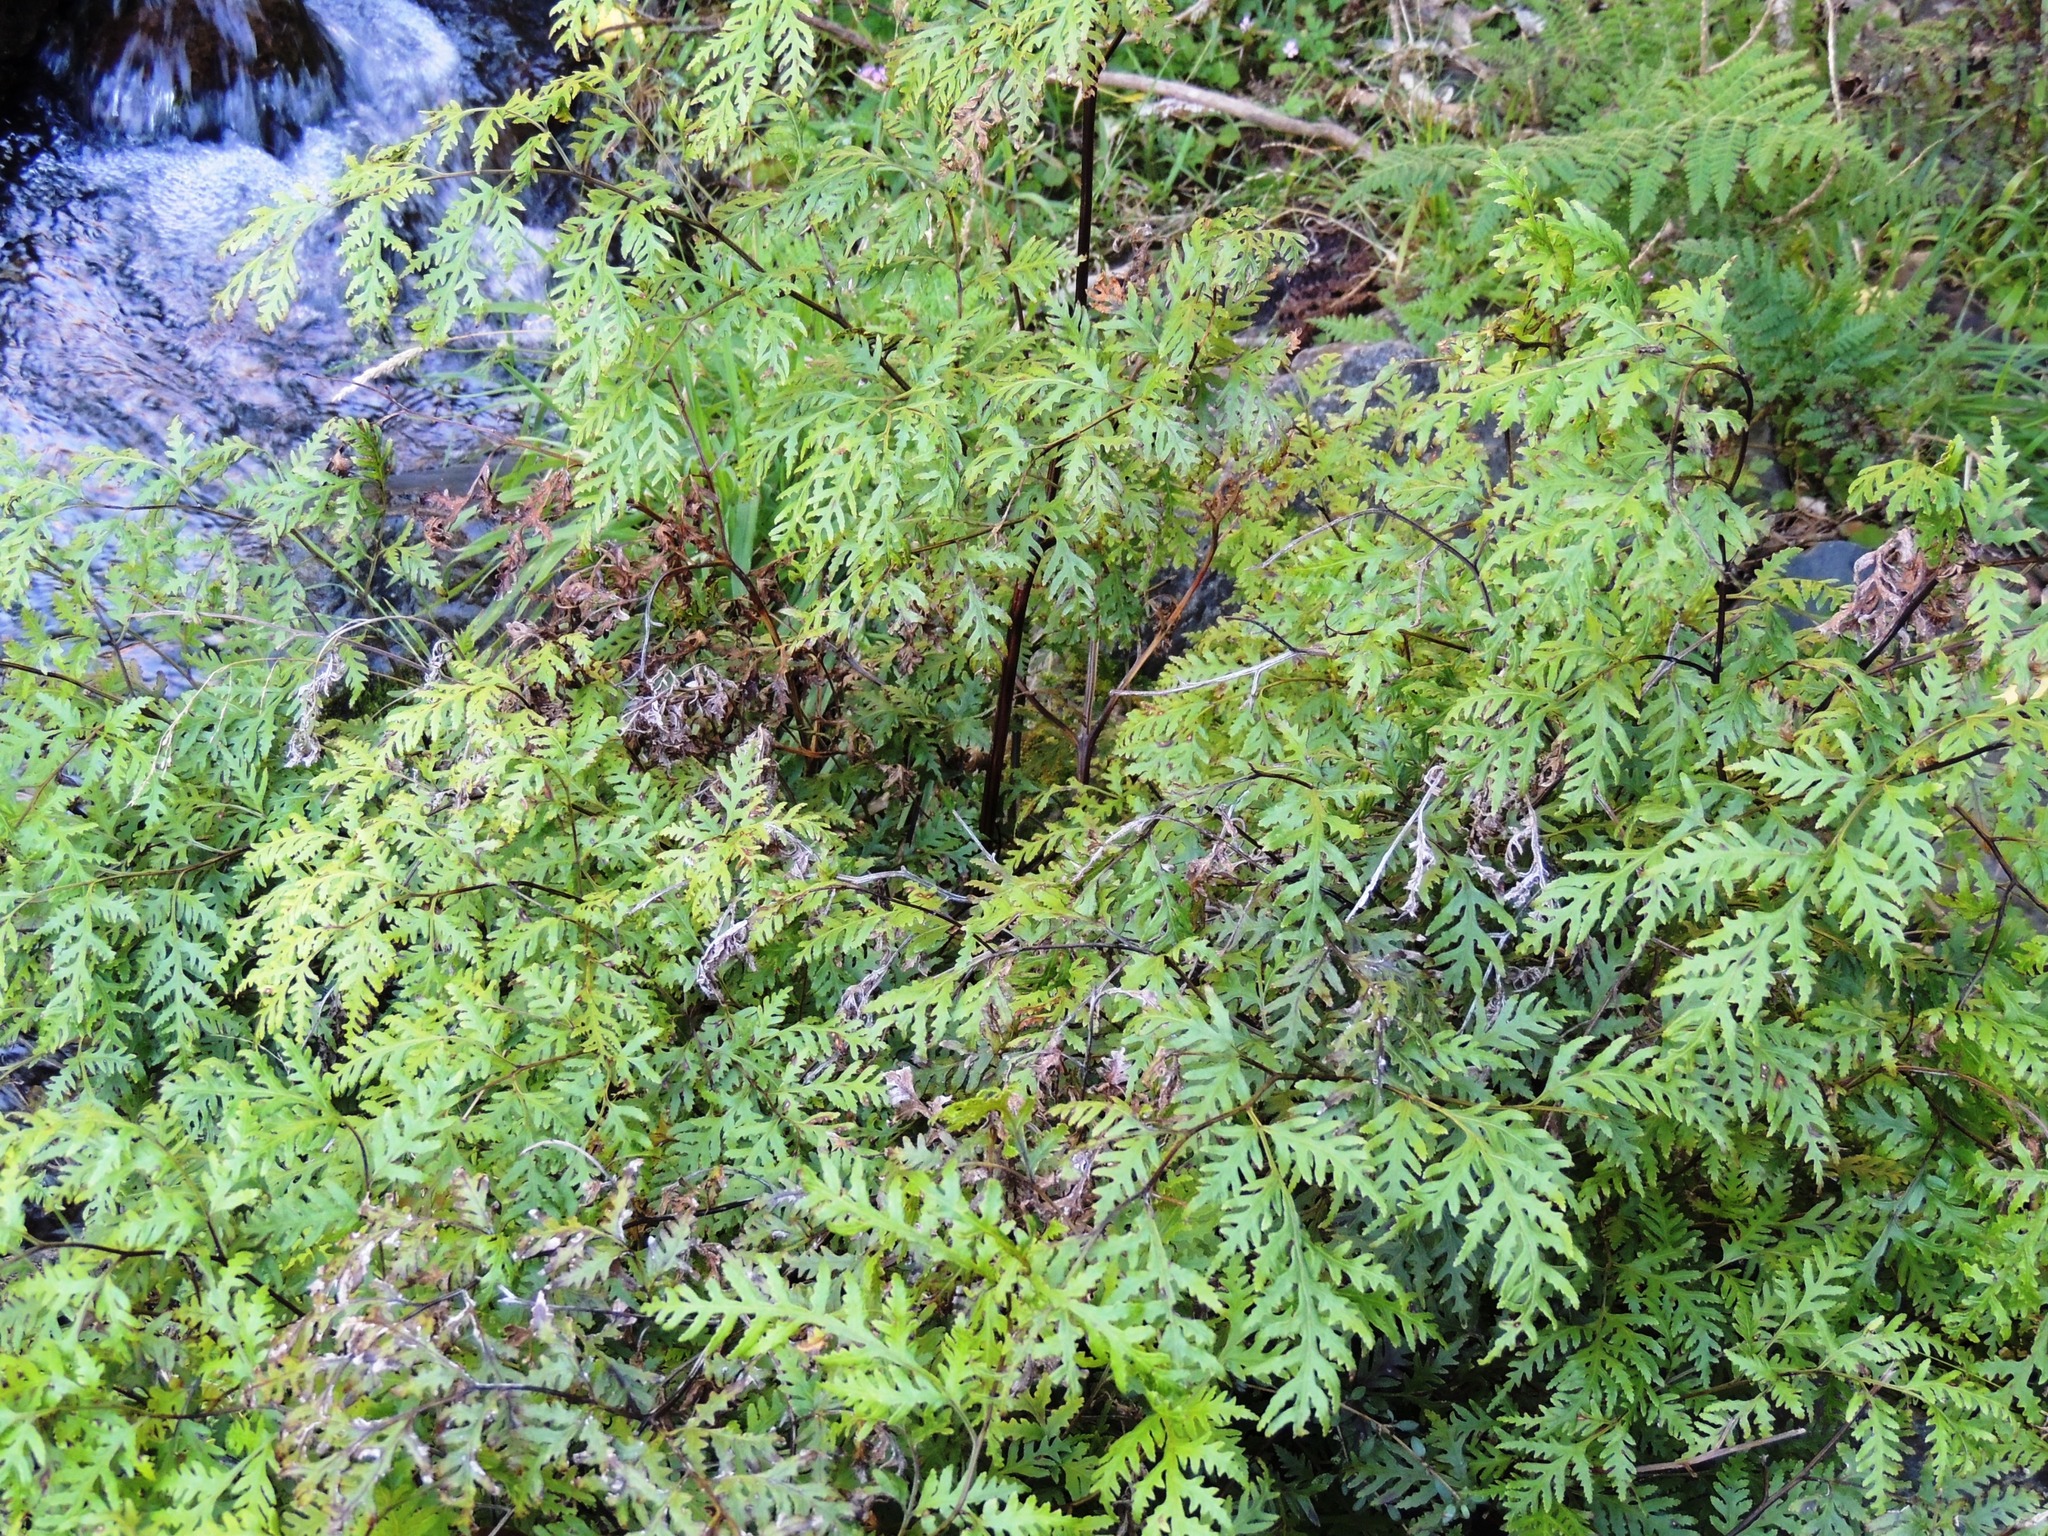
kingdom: Plantae
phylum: Tracheophyta
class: Polypodiopsida
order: Polypodiales
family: Pteridaceae
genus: Pteris
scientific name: Pteris macilenta
